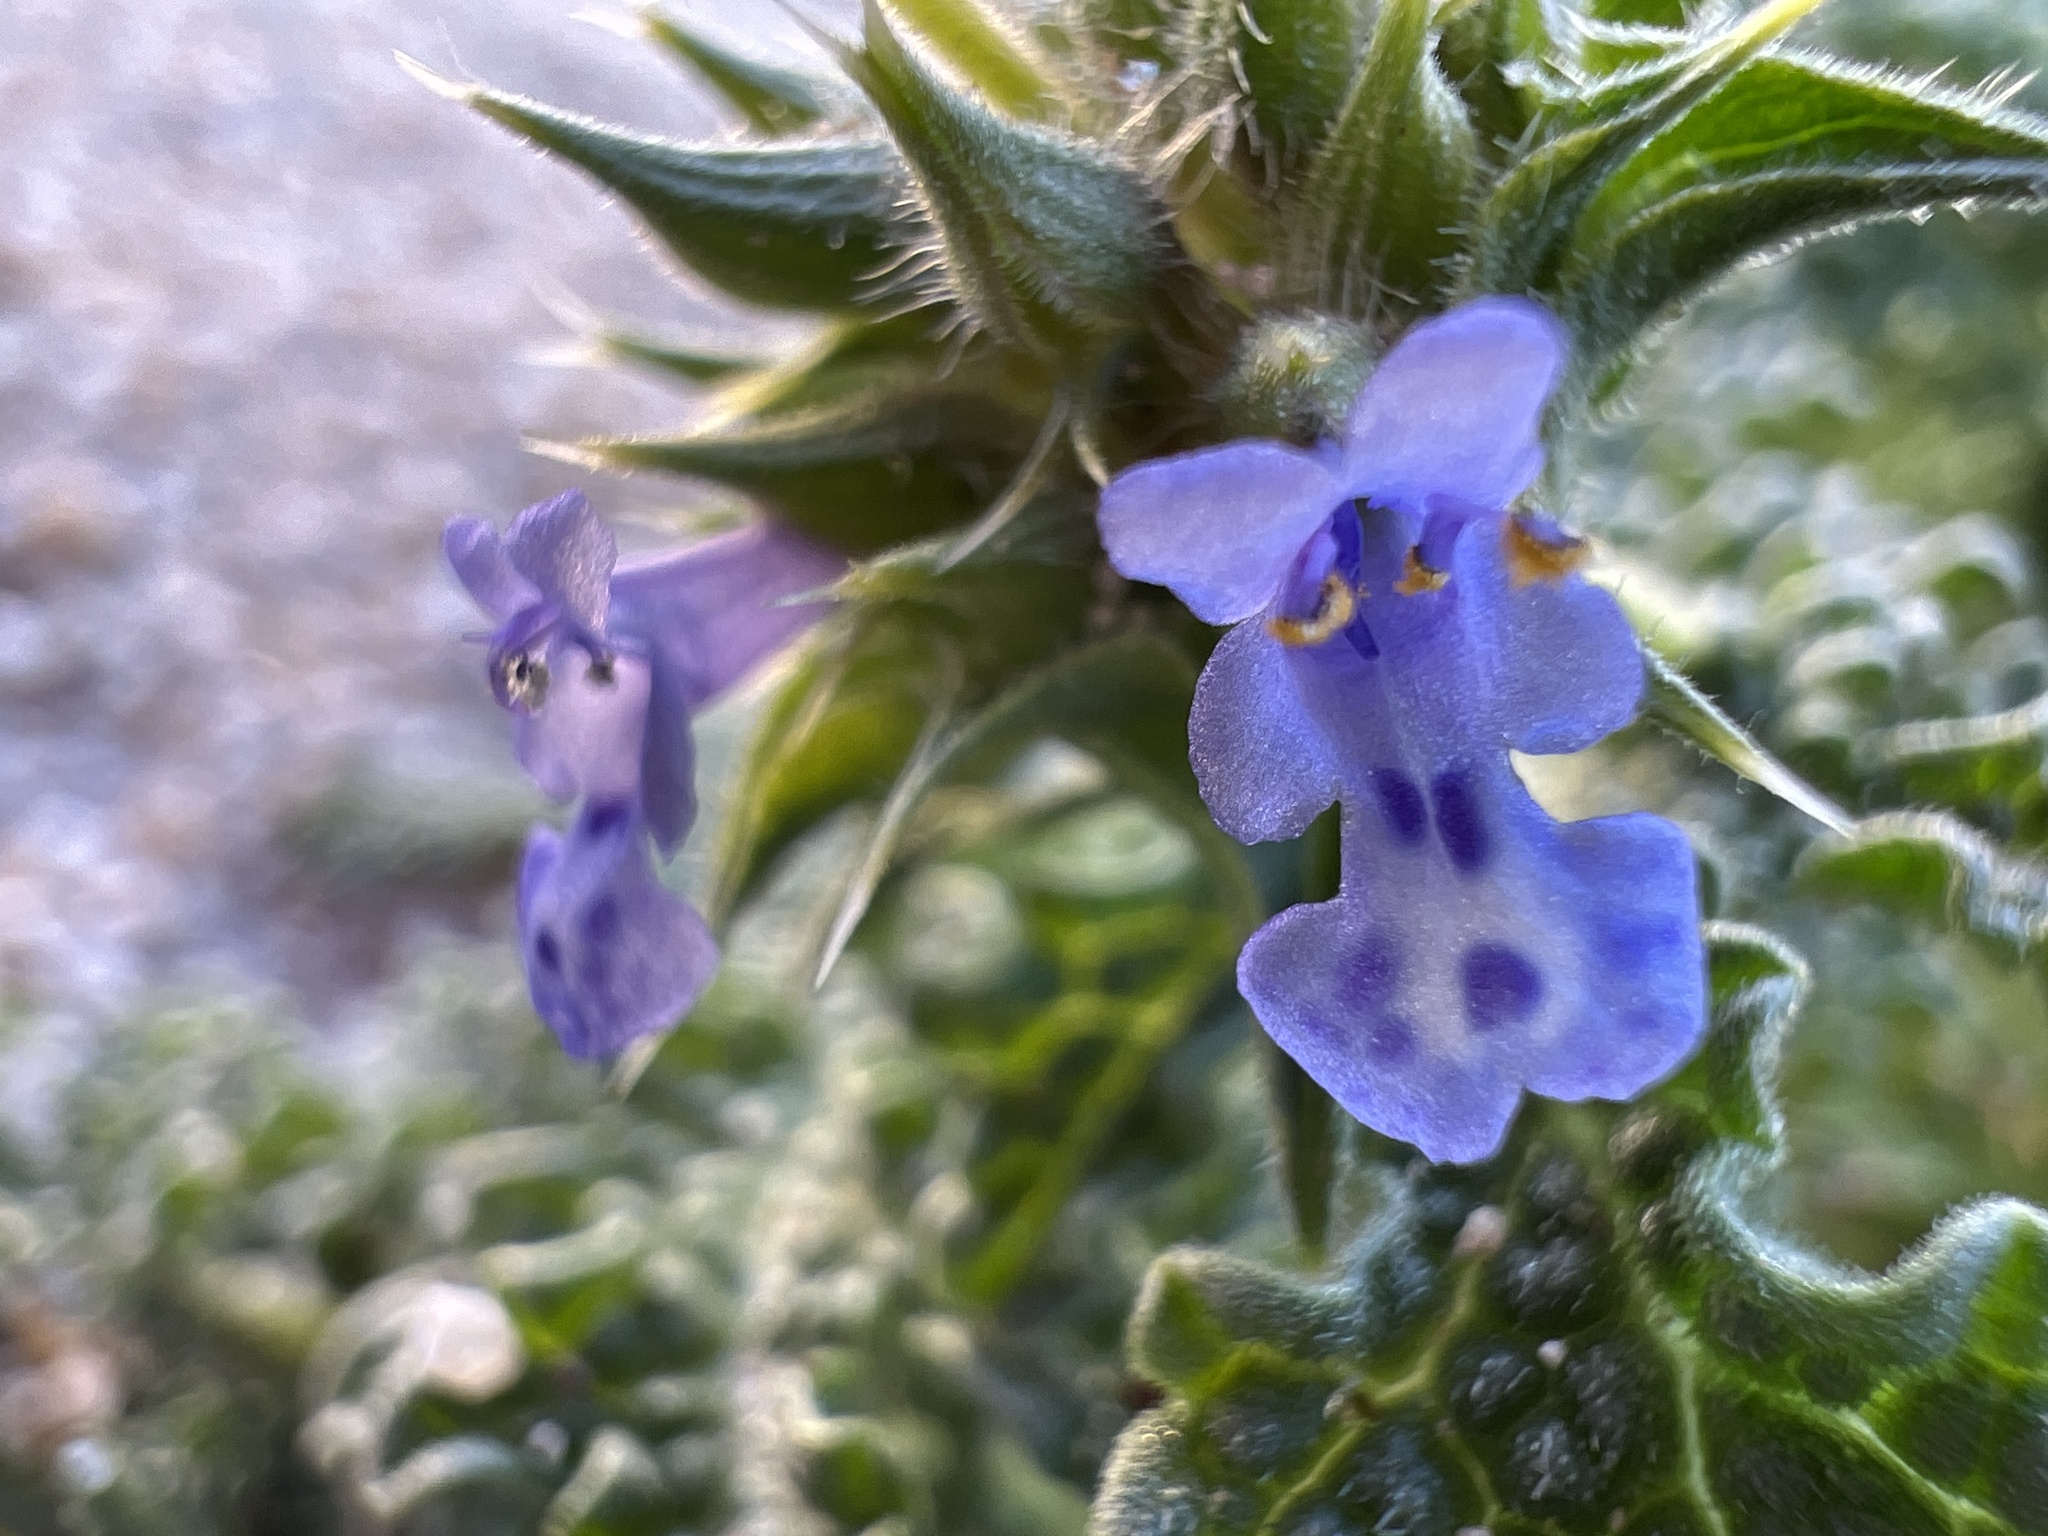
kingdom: Plantae
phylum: Tracheophyta
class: Magnoliopsida
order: Lamiales
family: Lamiaceae
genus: Salvia
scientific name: Salvia columbariae
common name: Chia
